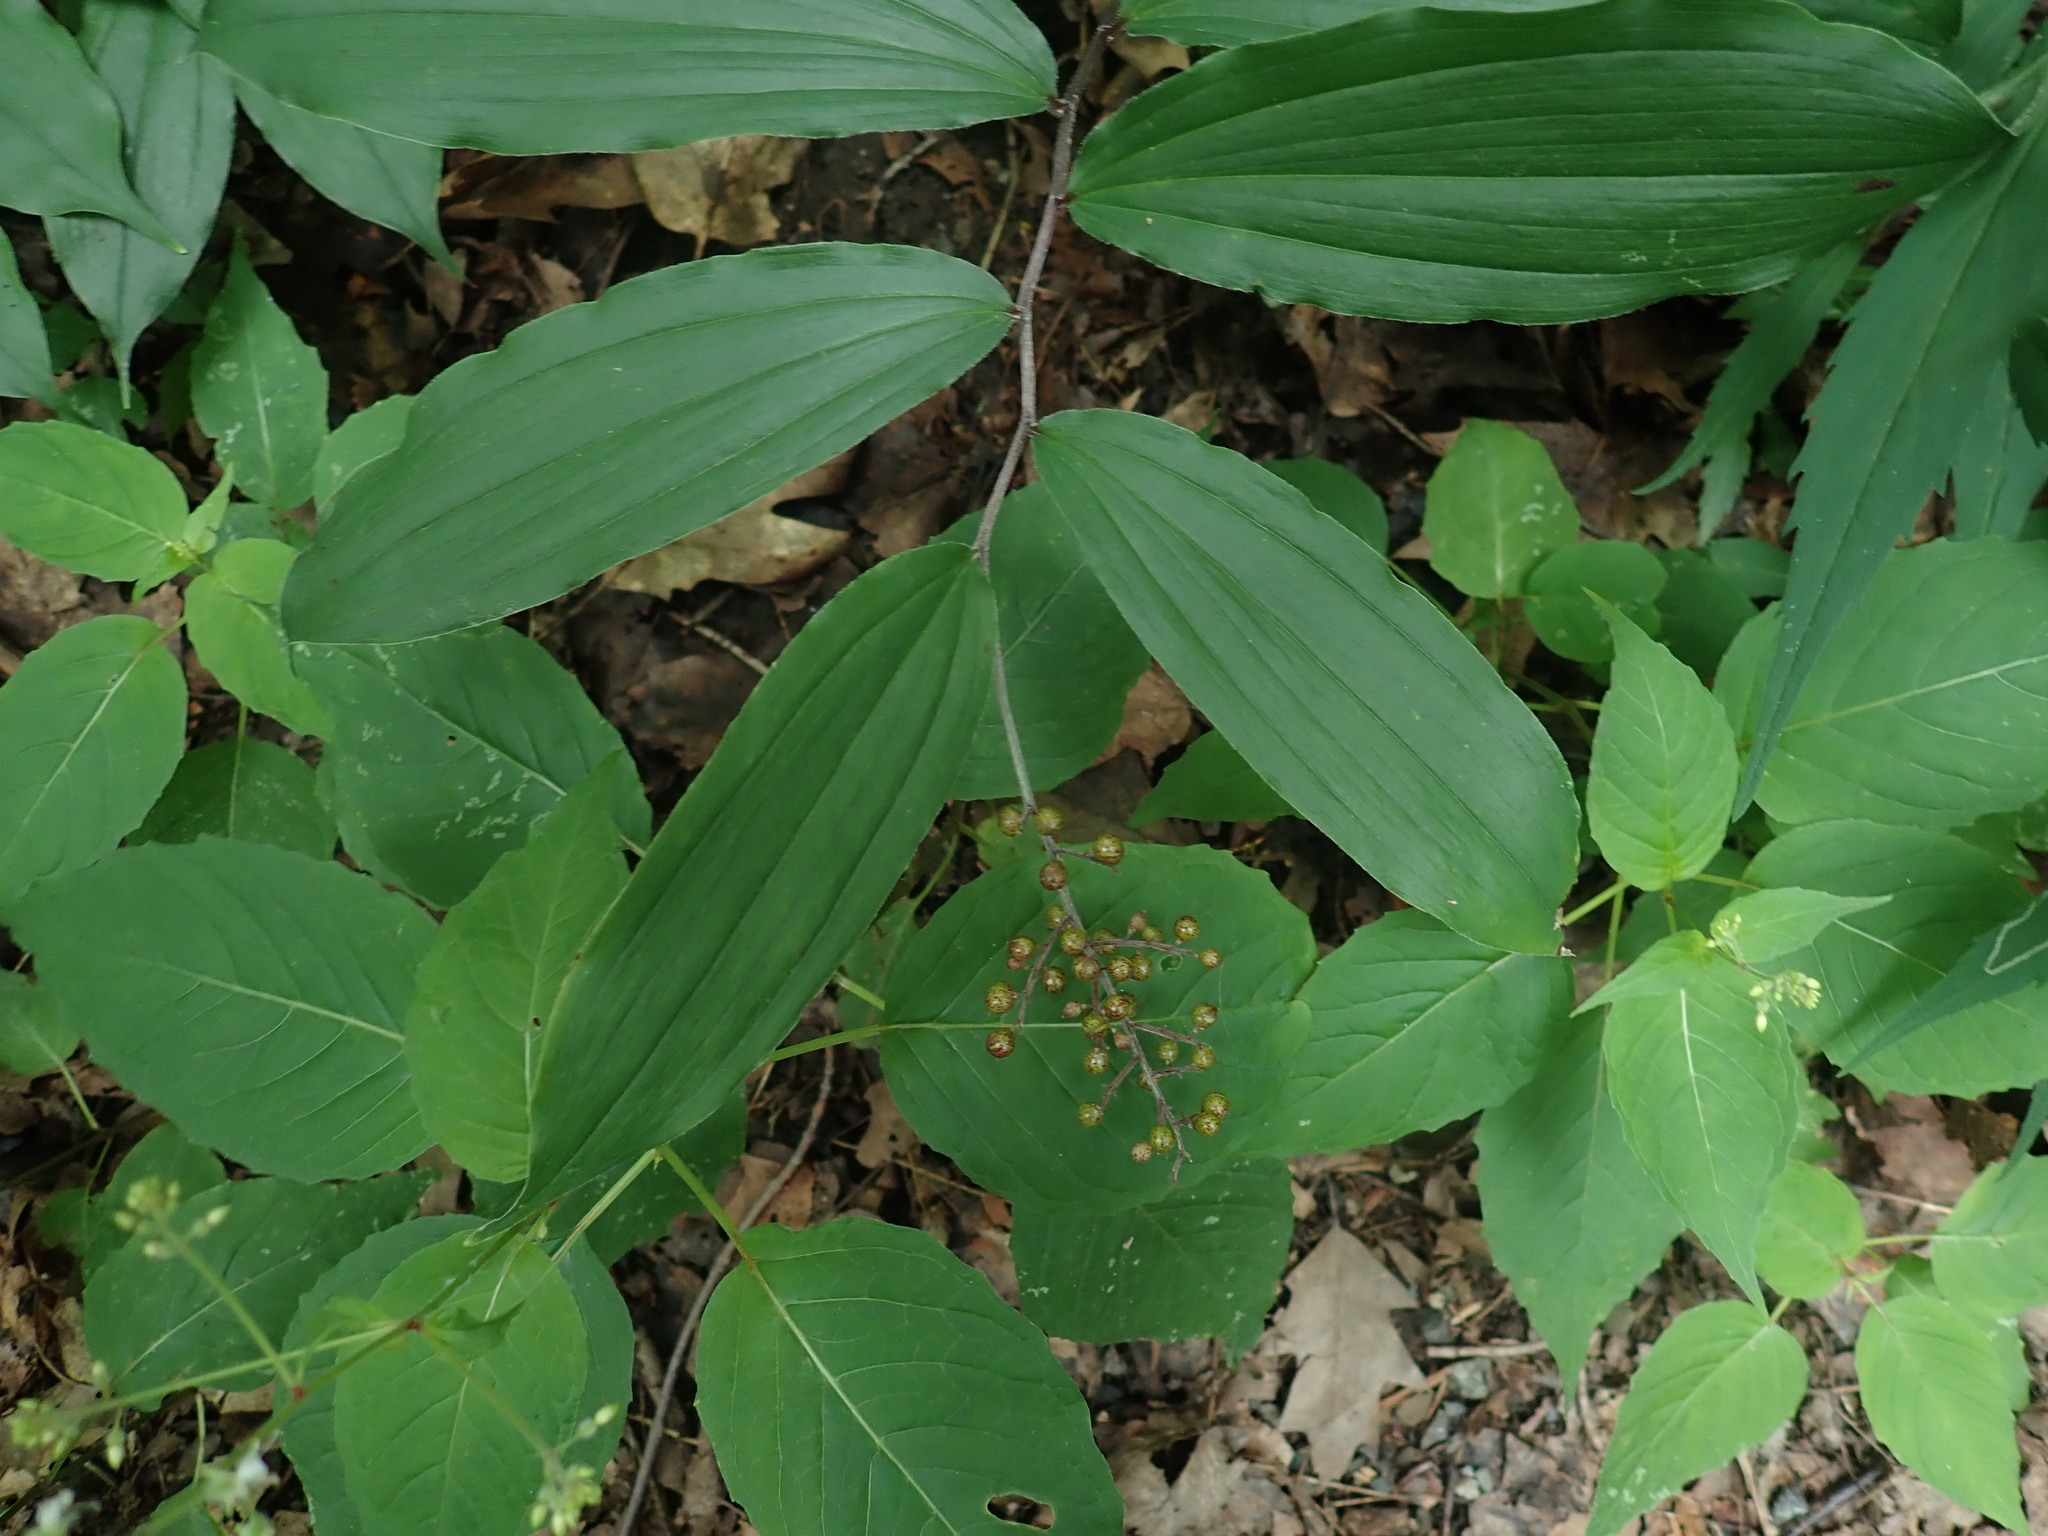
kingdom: Plantae
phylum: Tracheophyta
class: Liliopsida
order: Asparagales
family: Asparagaceae
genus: Maianthemum
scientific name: Maianthemum racemosum
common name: False spikenard
